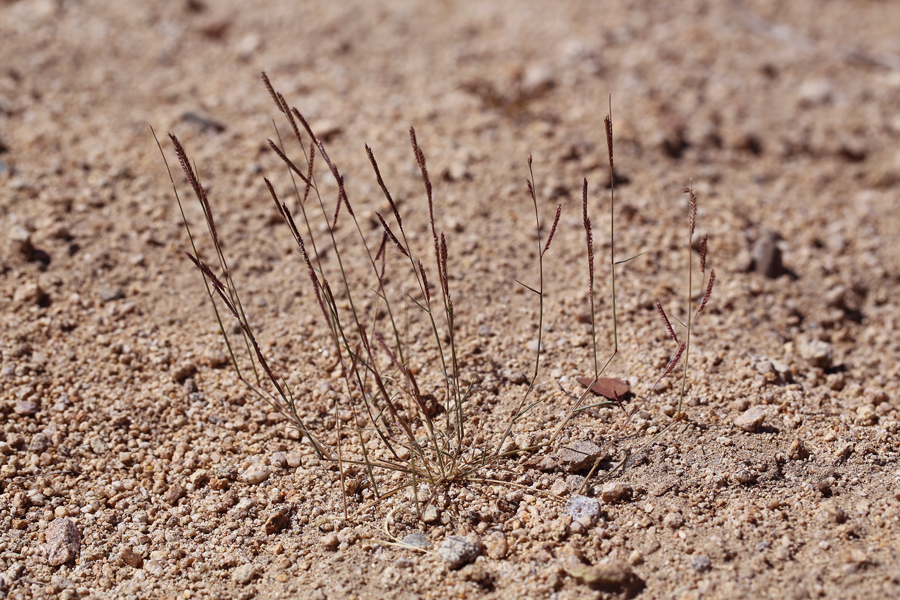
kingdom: Plantae
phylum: Tracheophyta
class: Liliopsida
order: Poales
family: Poaceae
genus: Bouteloua
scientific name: Bouteloua barbata
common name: Six-weeks grama
